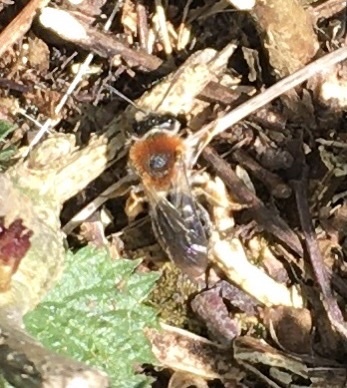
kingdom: Animalia
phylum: Arthropoda
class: Insecta
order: Hymenoptera
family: Andrenidae
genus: Andrena
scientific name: Andrena haemorrhoa
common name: Early mining bee
